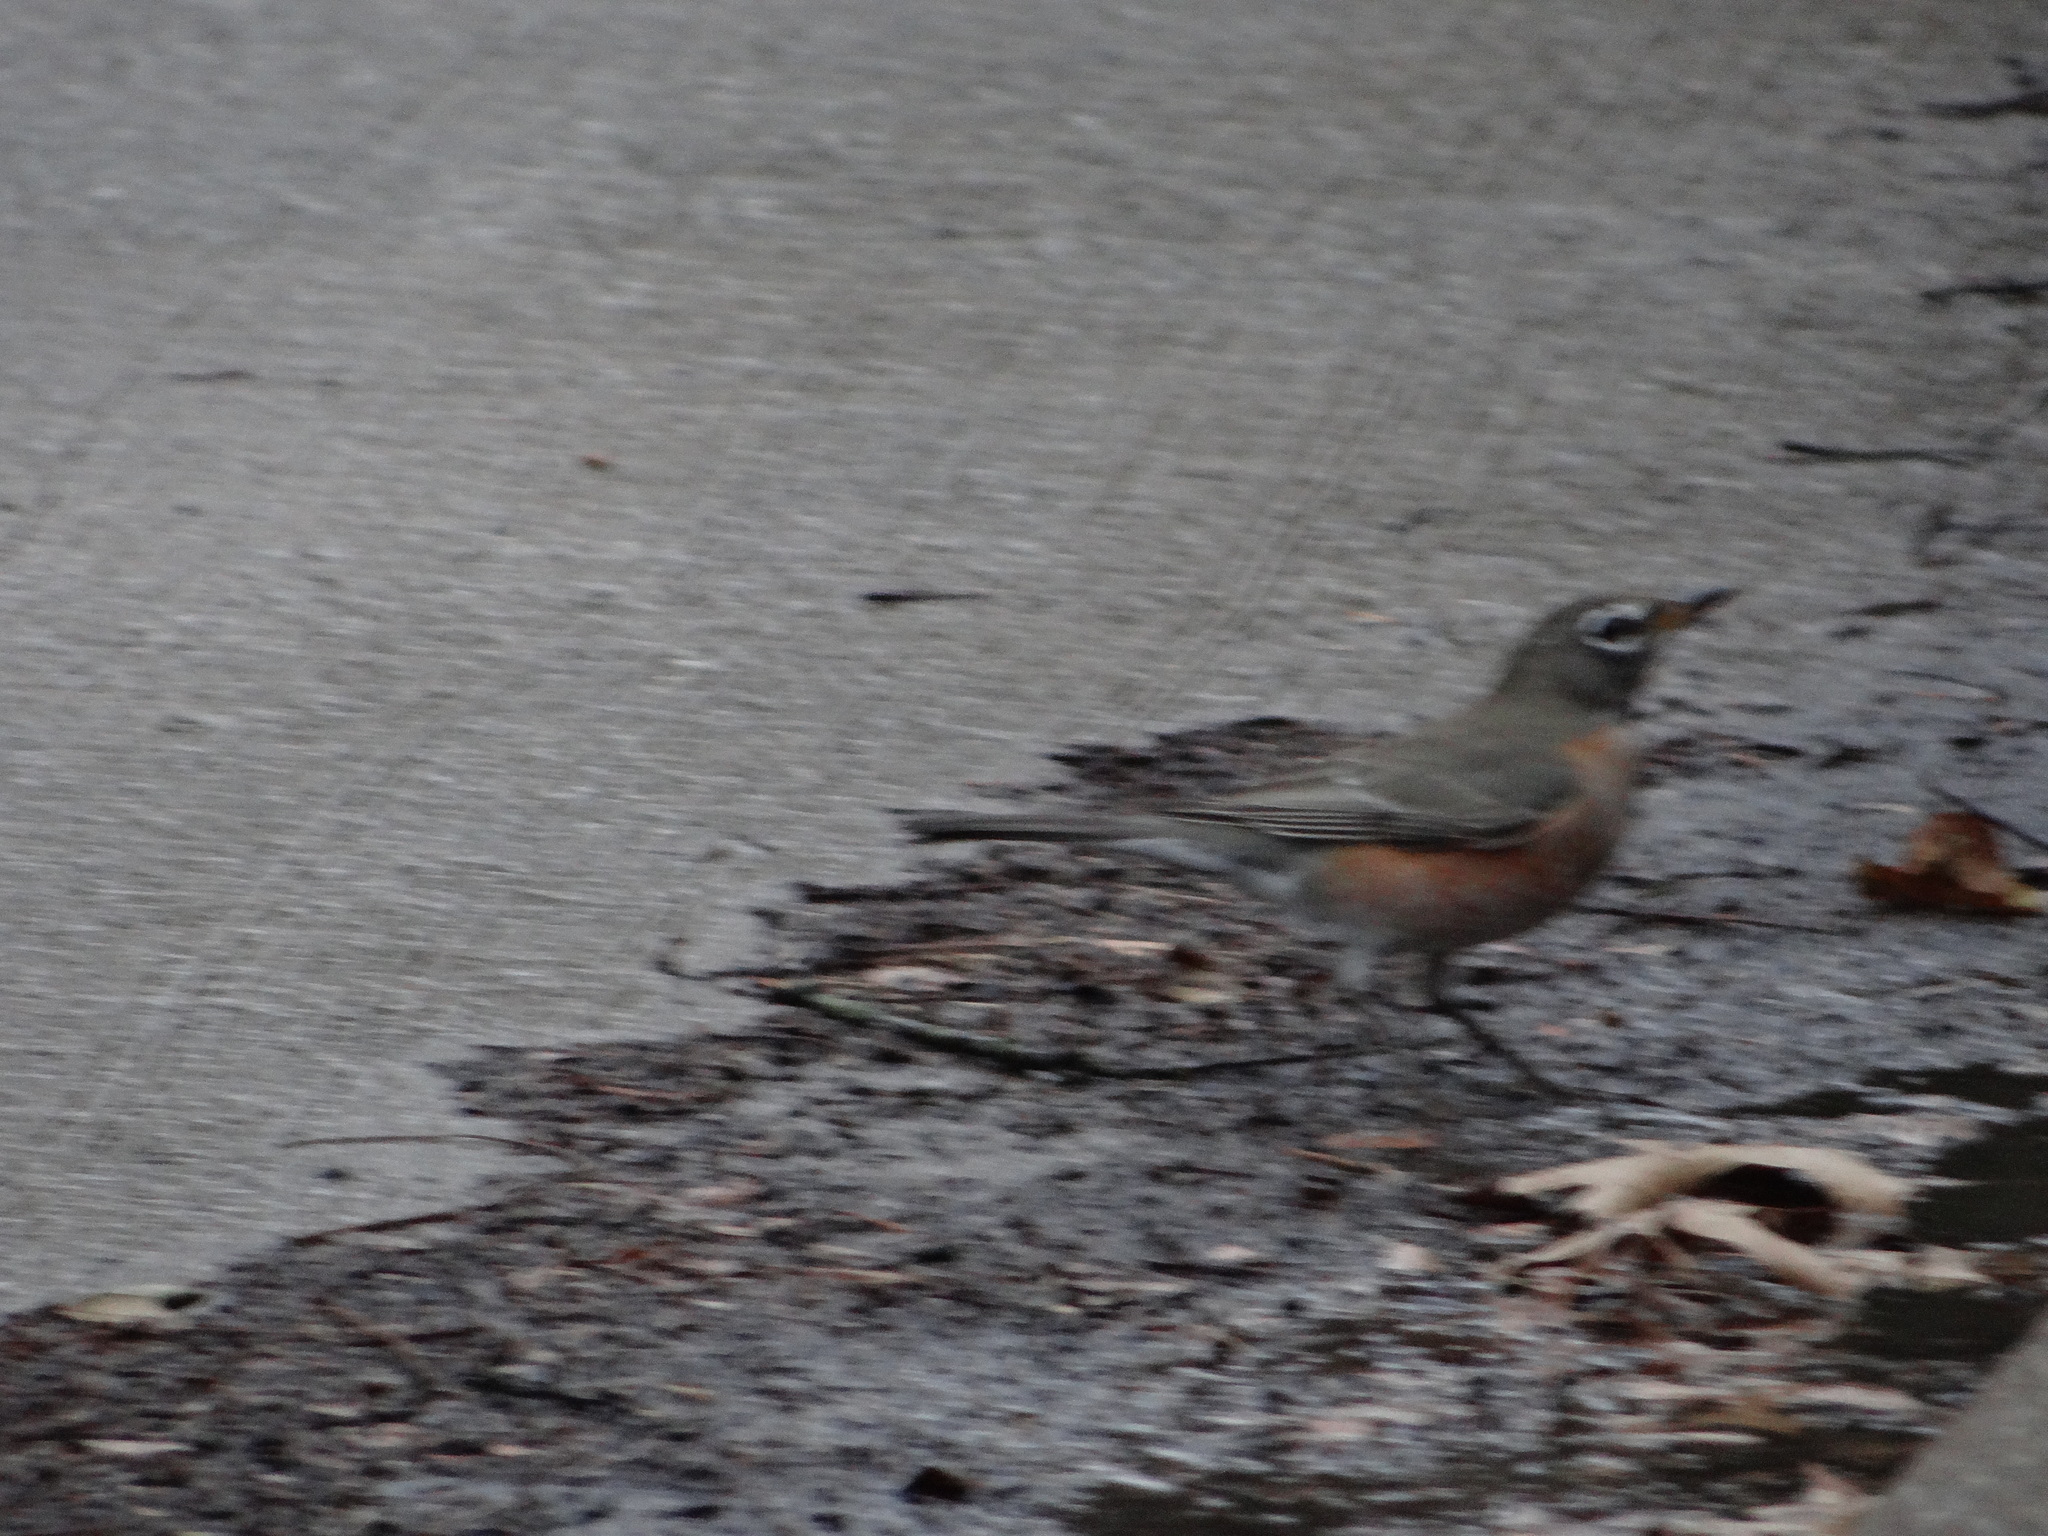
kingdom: Animalia
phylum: Chordata
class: Aves
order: Passeriformes
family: Turdidae
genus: Turdus
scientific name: Turdus migratorius
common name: American robin
